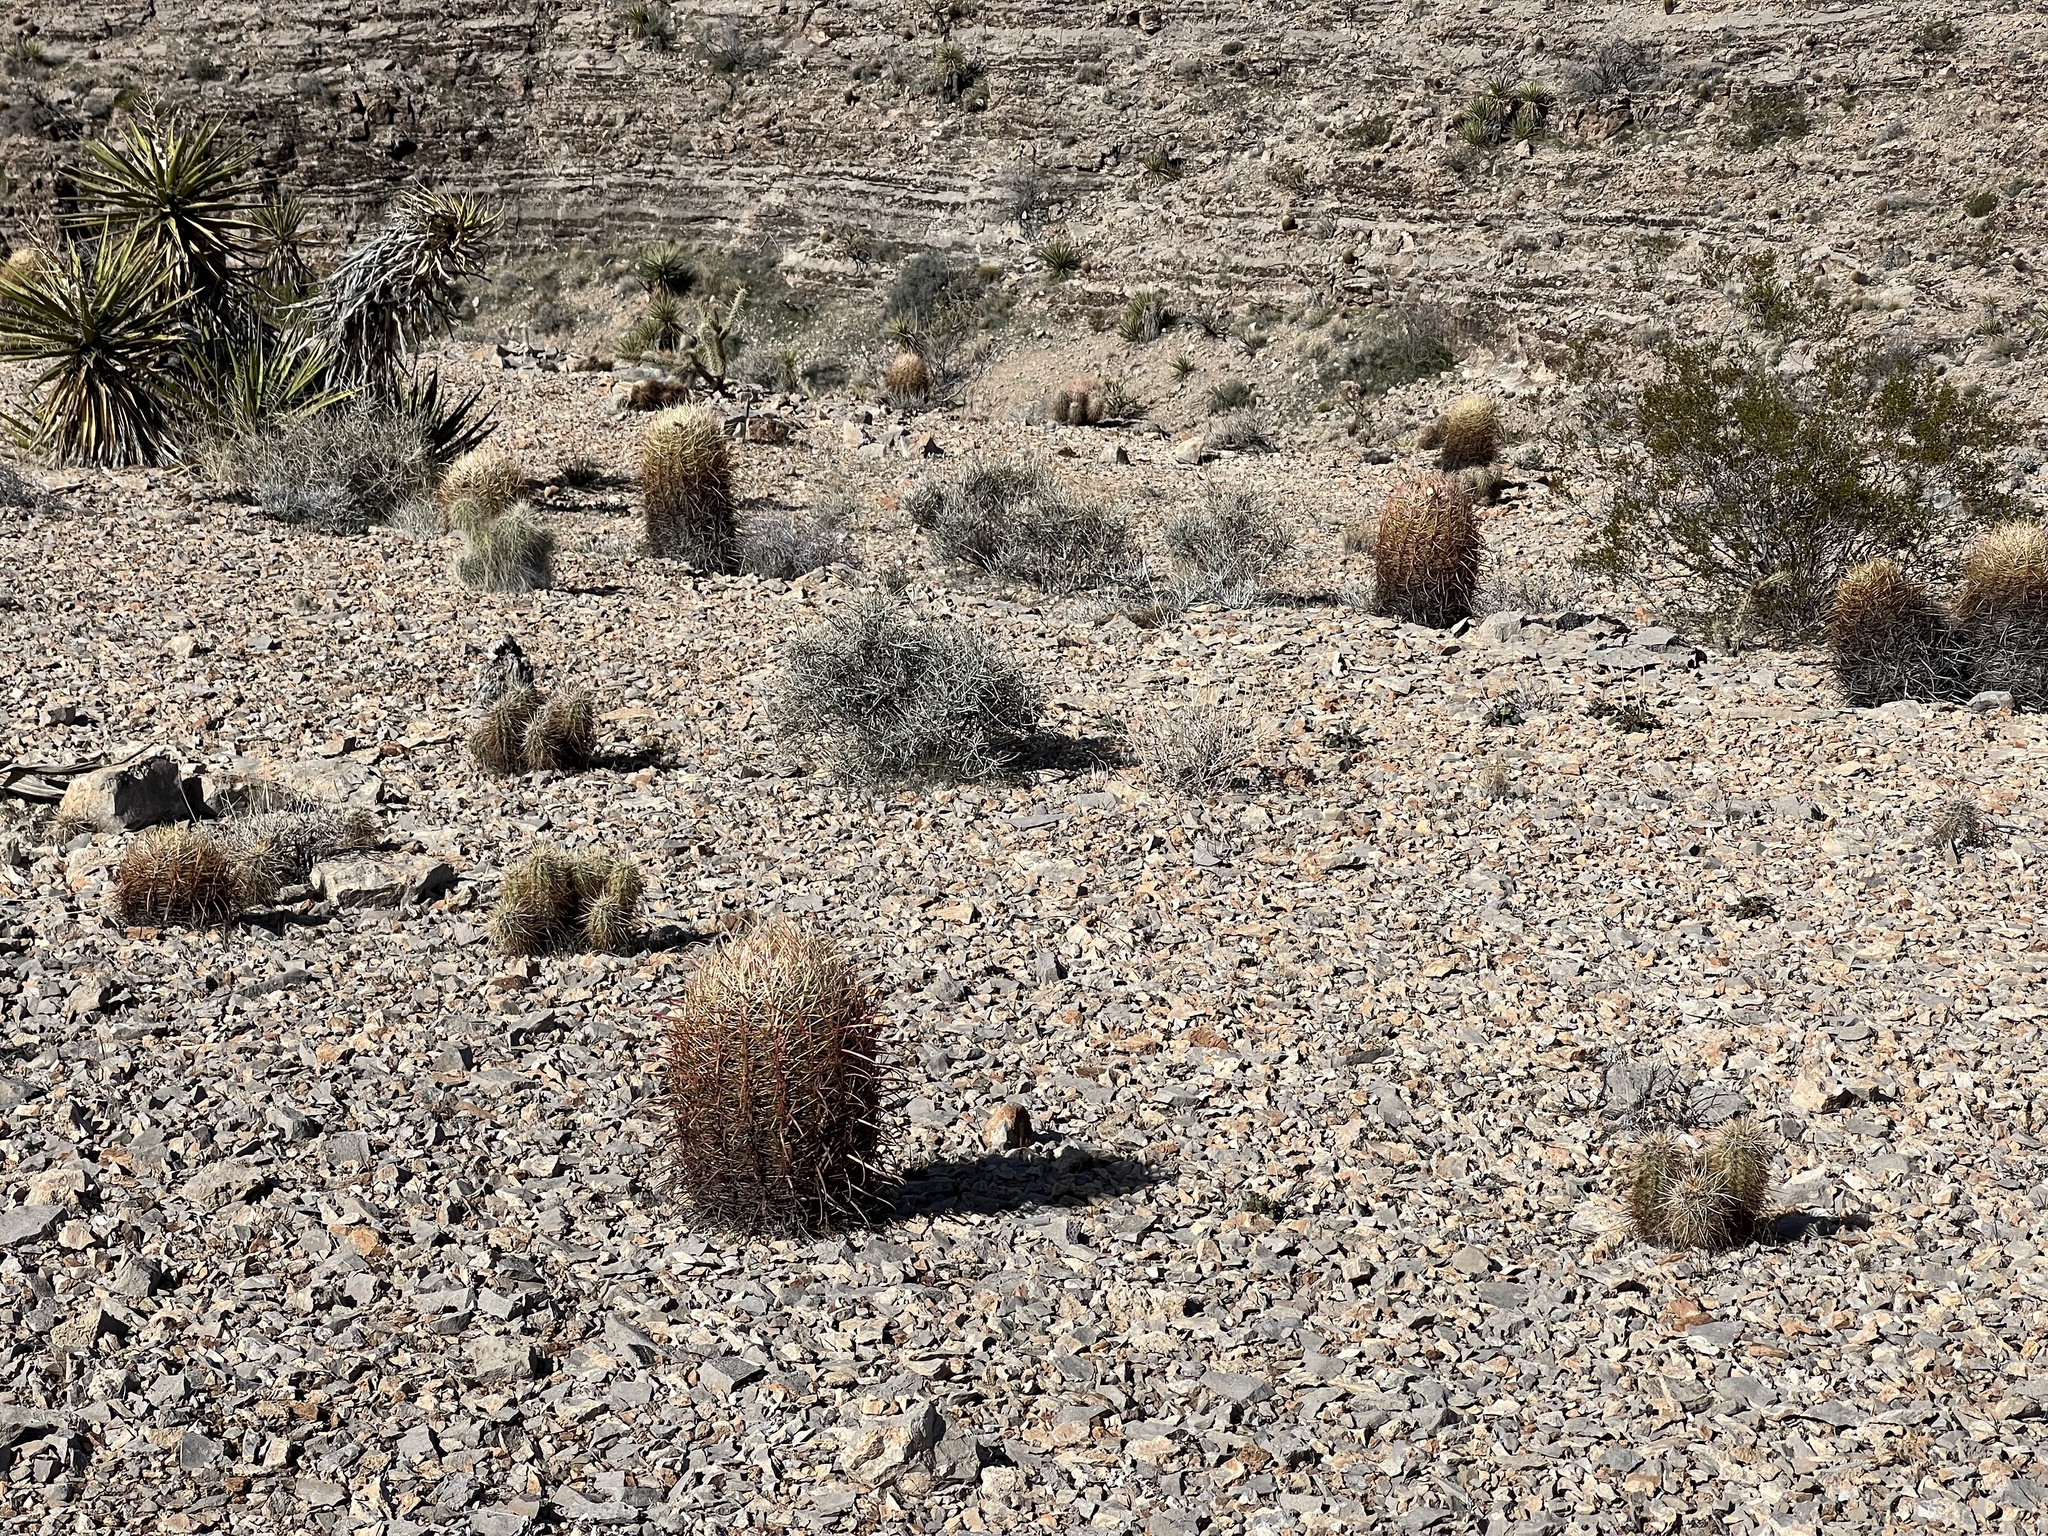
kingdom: Plantae
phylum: Tracheophyta
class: Magnoliopsida
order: Caryophyllales
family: Cactaceae
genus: Ferocactus
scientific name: Ferocactus cylindraceus
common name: California barrel cactus
